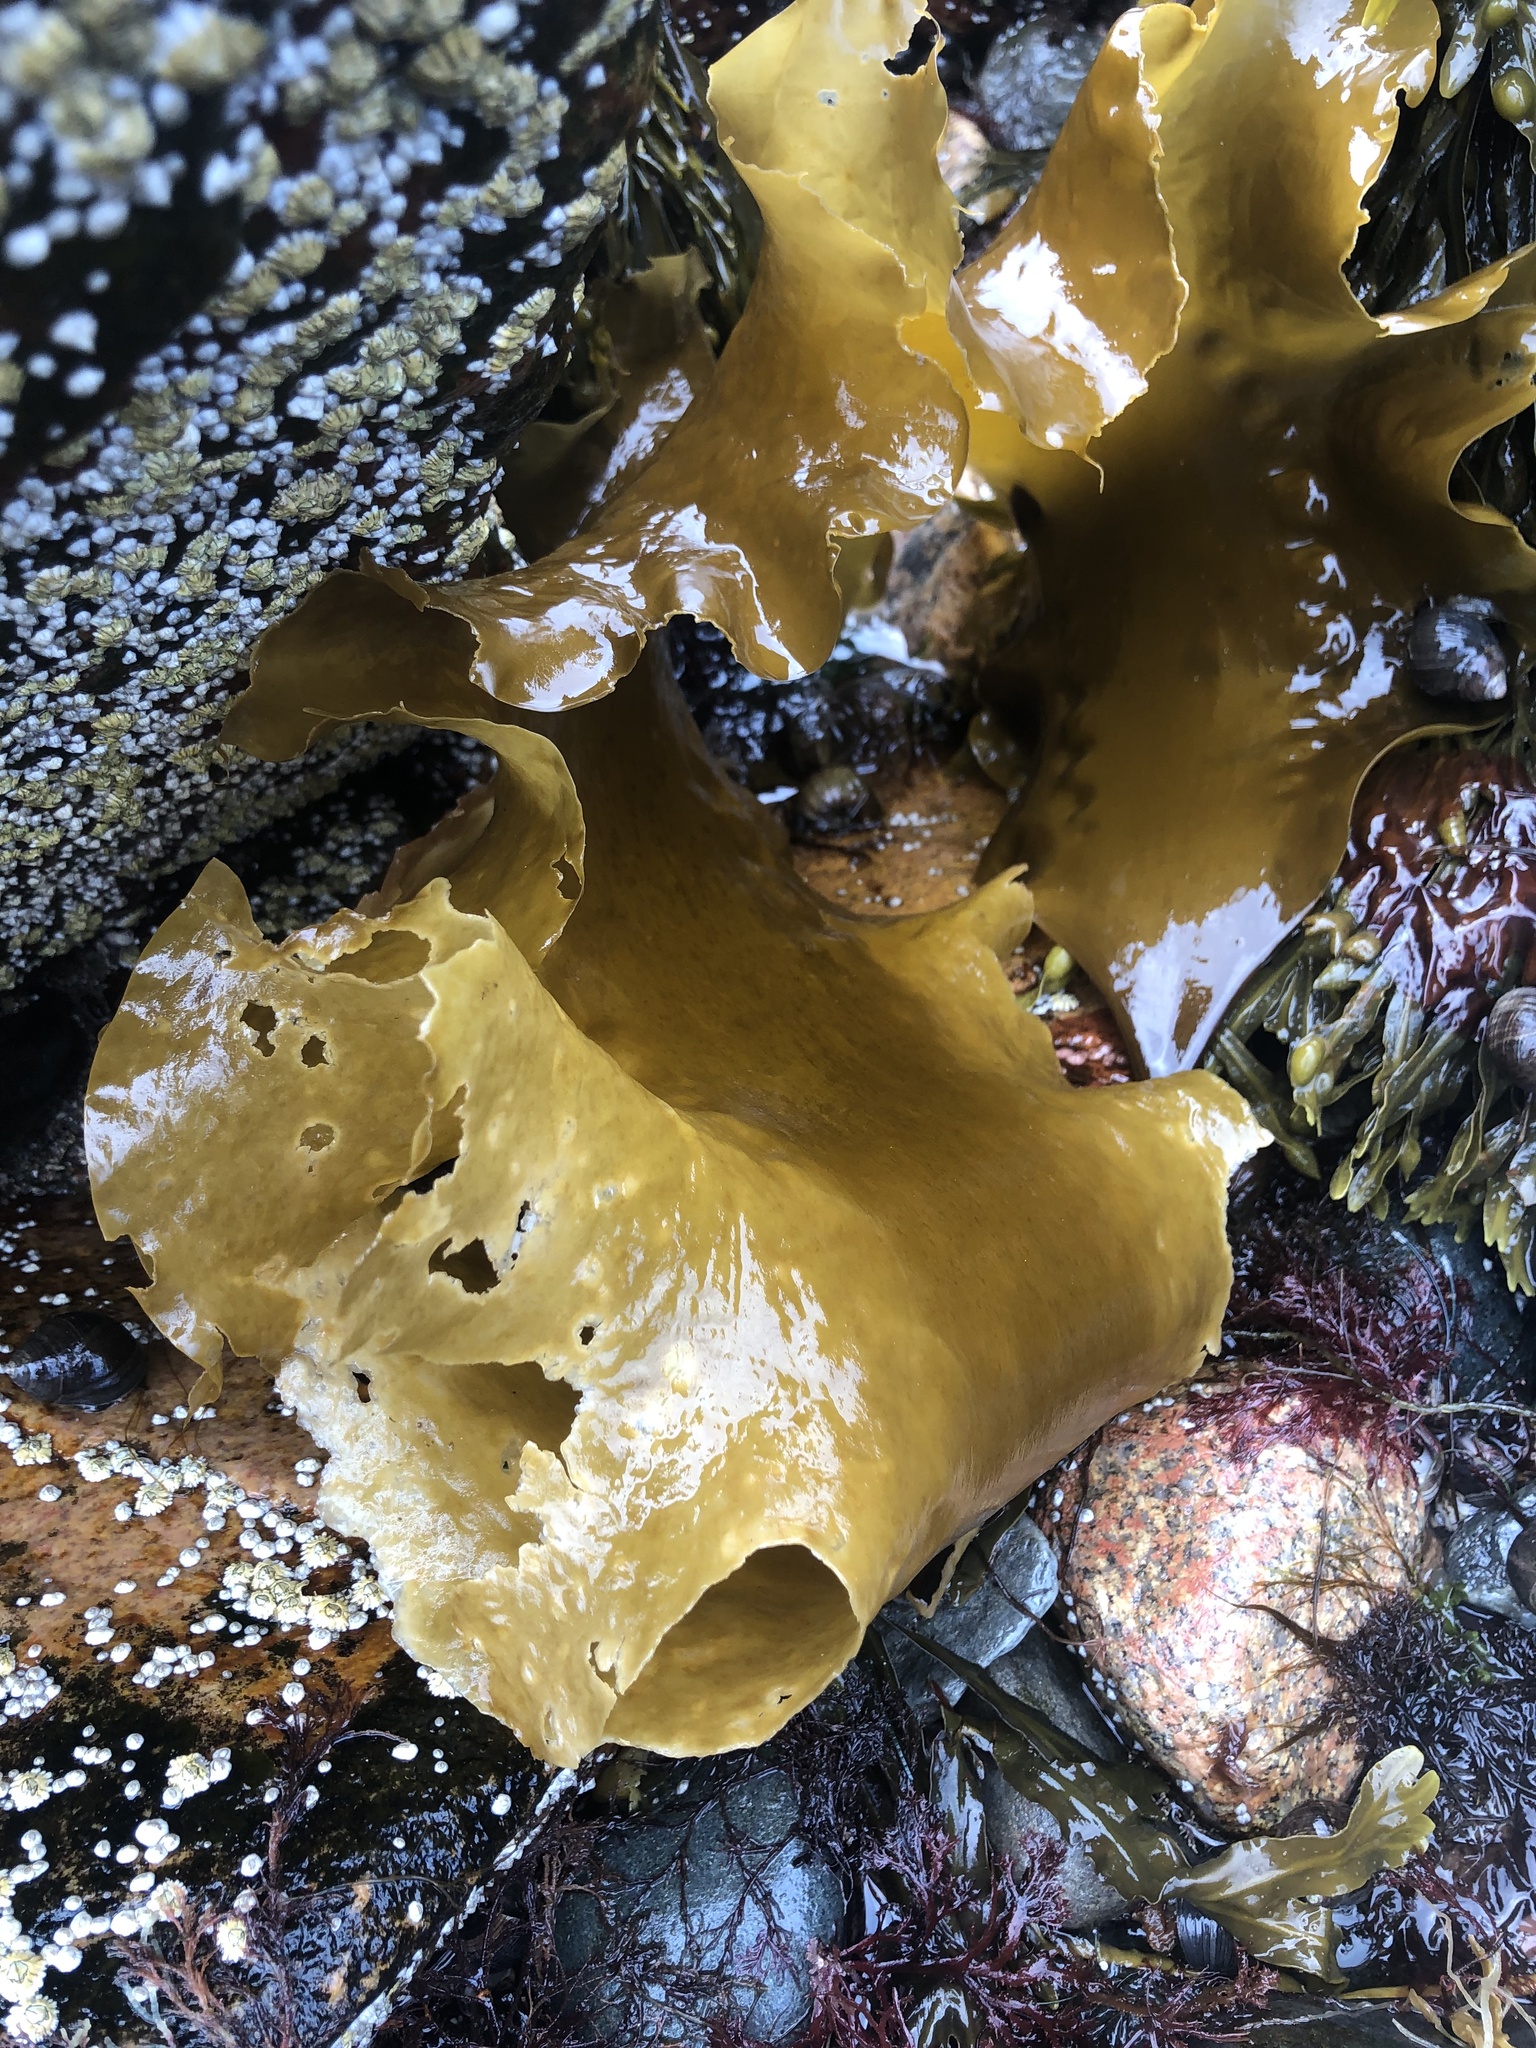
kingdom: Chromista
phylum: Ochrophyta
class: Phaeophyceae
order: Laminariales
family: Laminariaceae
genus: Saccharina
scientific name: Saccharina latissima
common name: Poor man's weather glass
